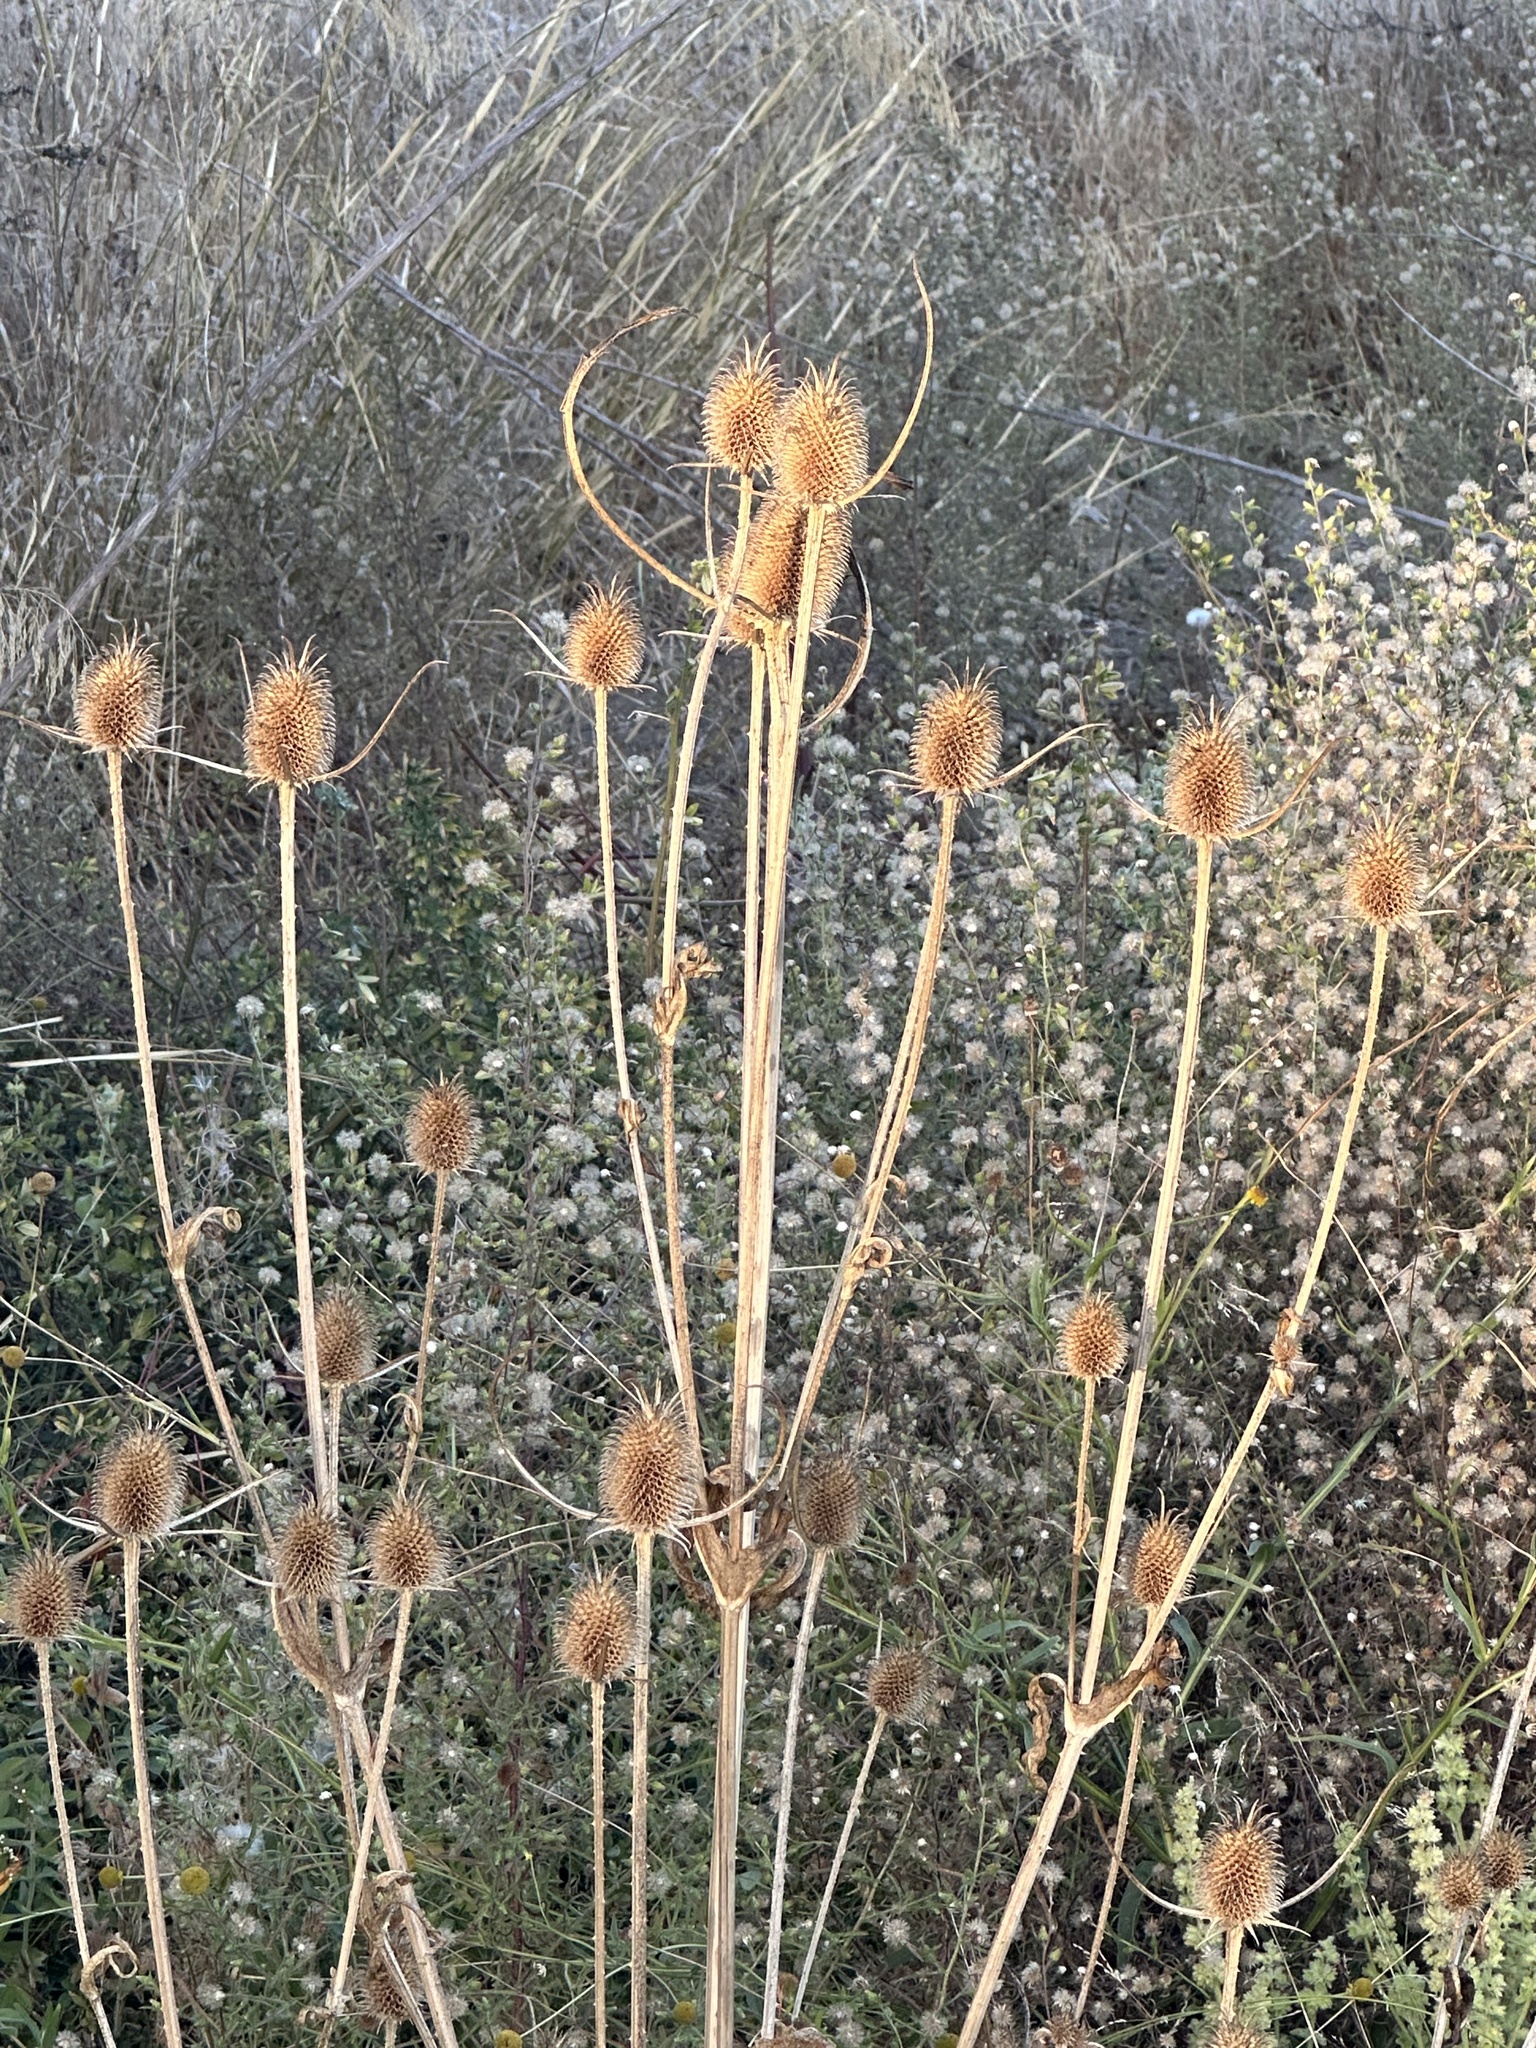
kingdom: Plantae
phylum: Tracheophyta
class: Magnoliopsida
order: Dipsacales
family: Caprifoliaceae
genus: Dipsacus
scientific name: Dipsacus sativus
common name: Fuller's teasel
